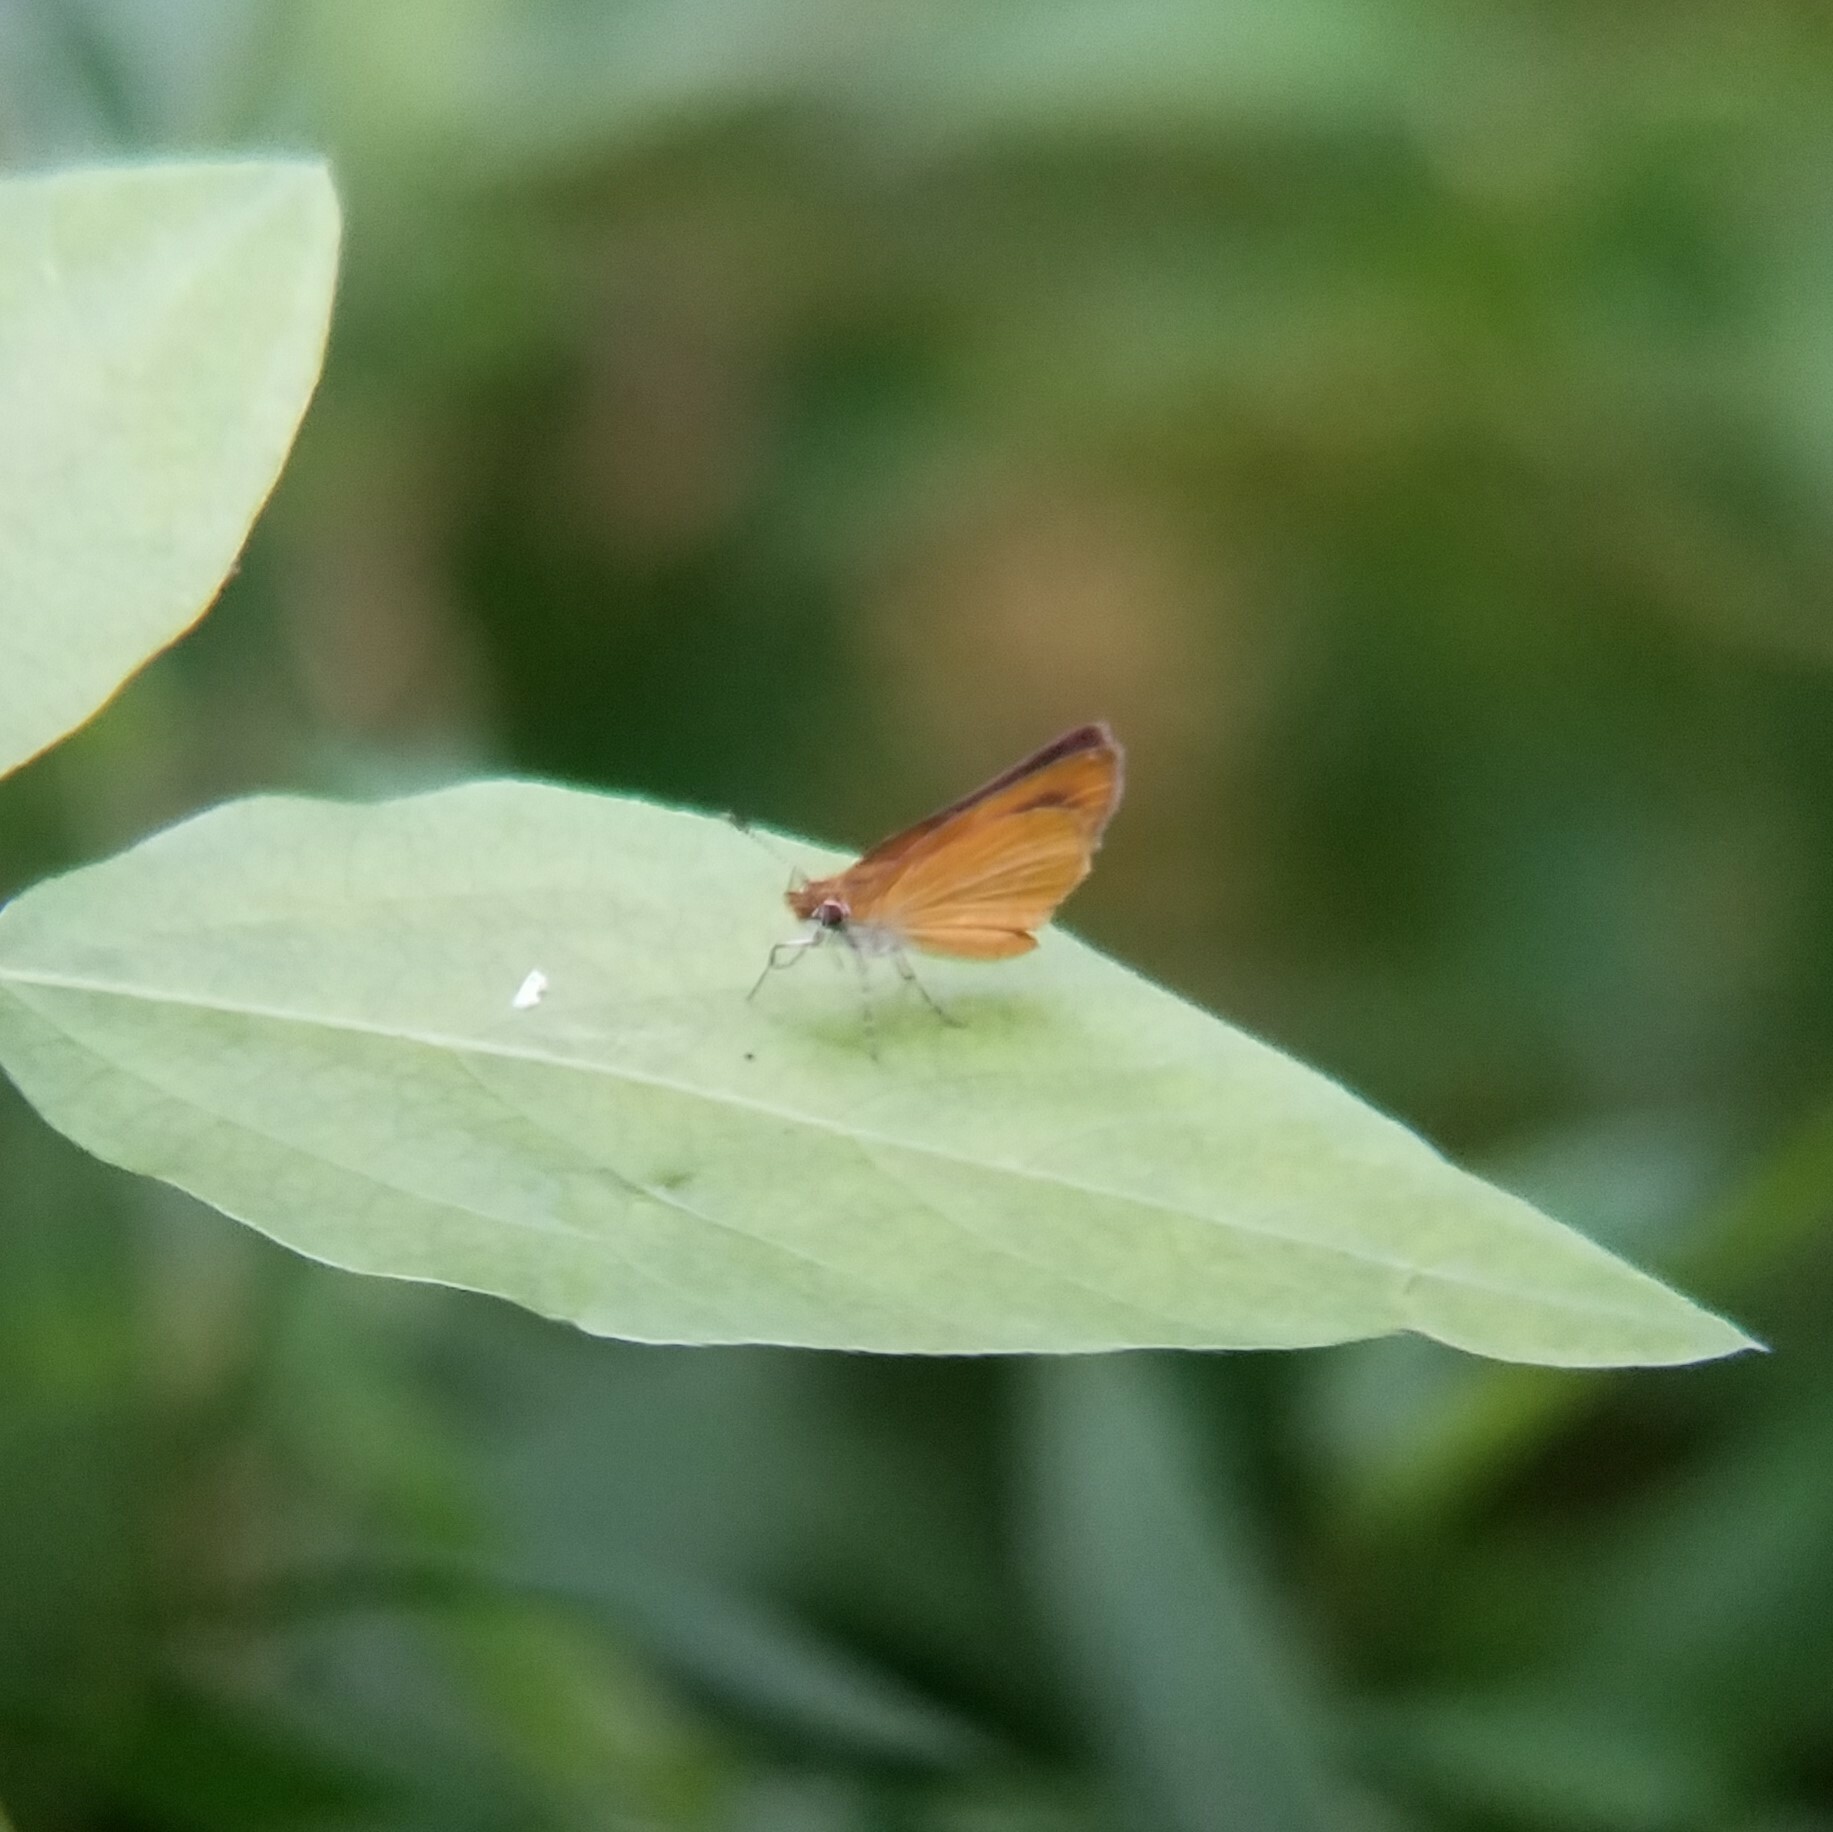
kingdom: Animalia
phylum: Arthropoda
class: Insecta
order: Lepidoptera
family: Hesperiidae
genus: Ancyloxypha
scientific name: Ancyloxypha numitor
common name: Least skipper
